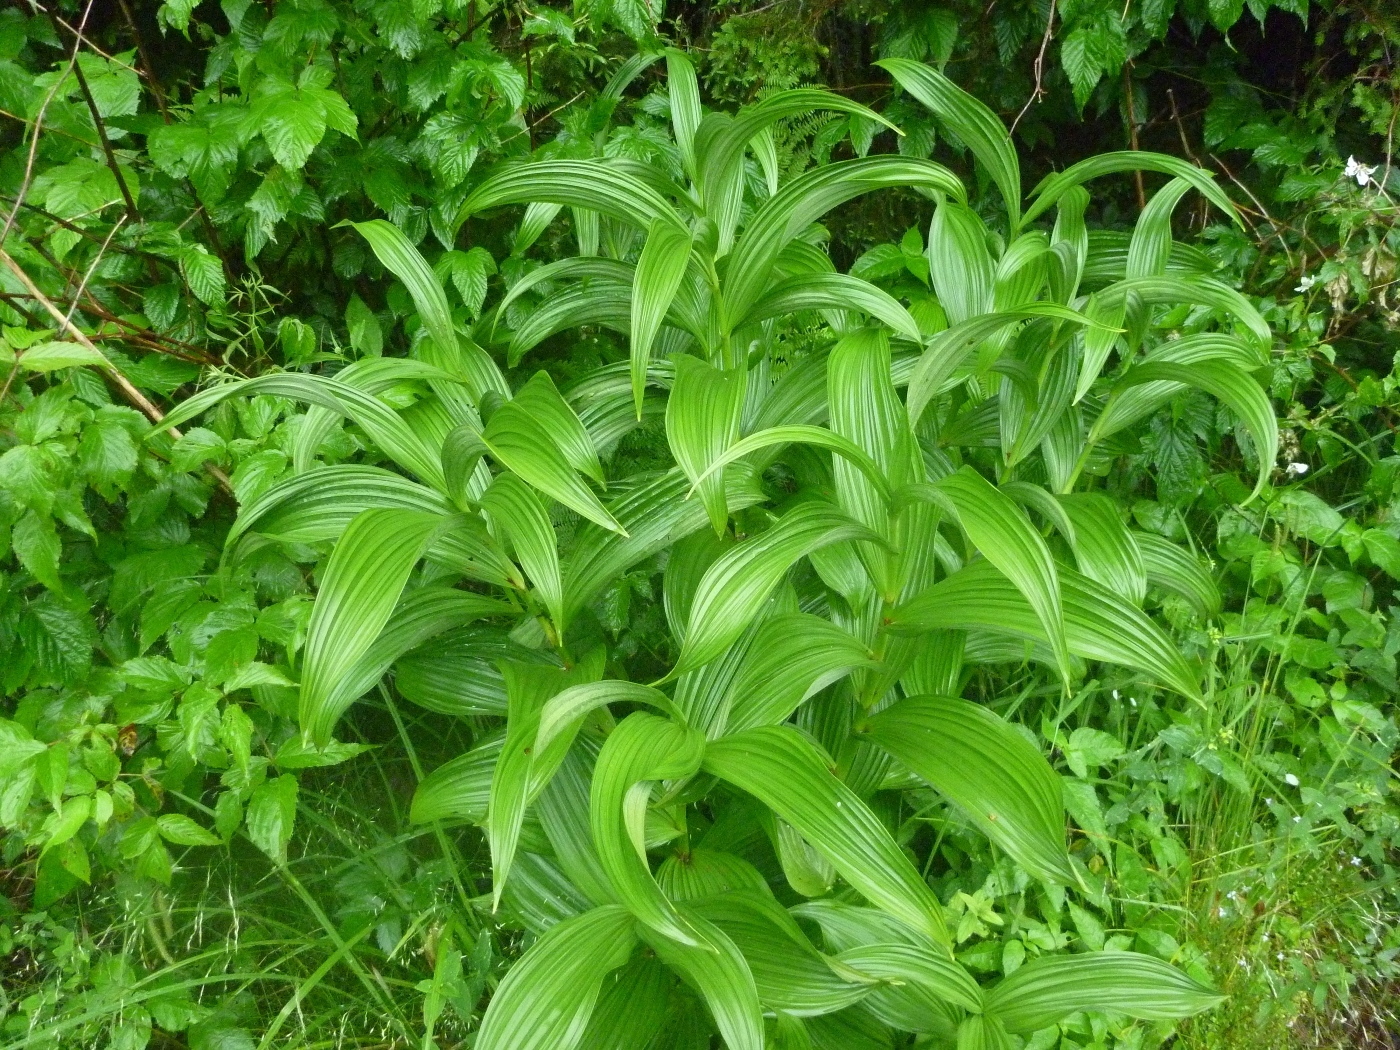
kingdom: Plantae
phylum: Tracheophyta
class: Liliopsida
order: Liliales
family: Melanthiaceae
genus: Veratrum
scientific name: Veratrum viride
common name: American false hellebore
